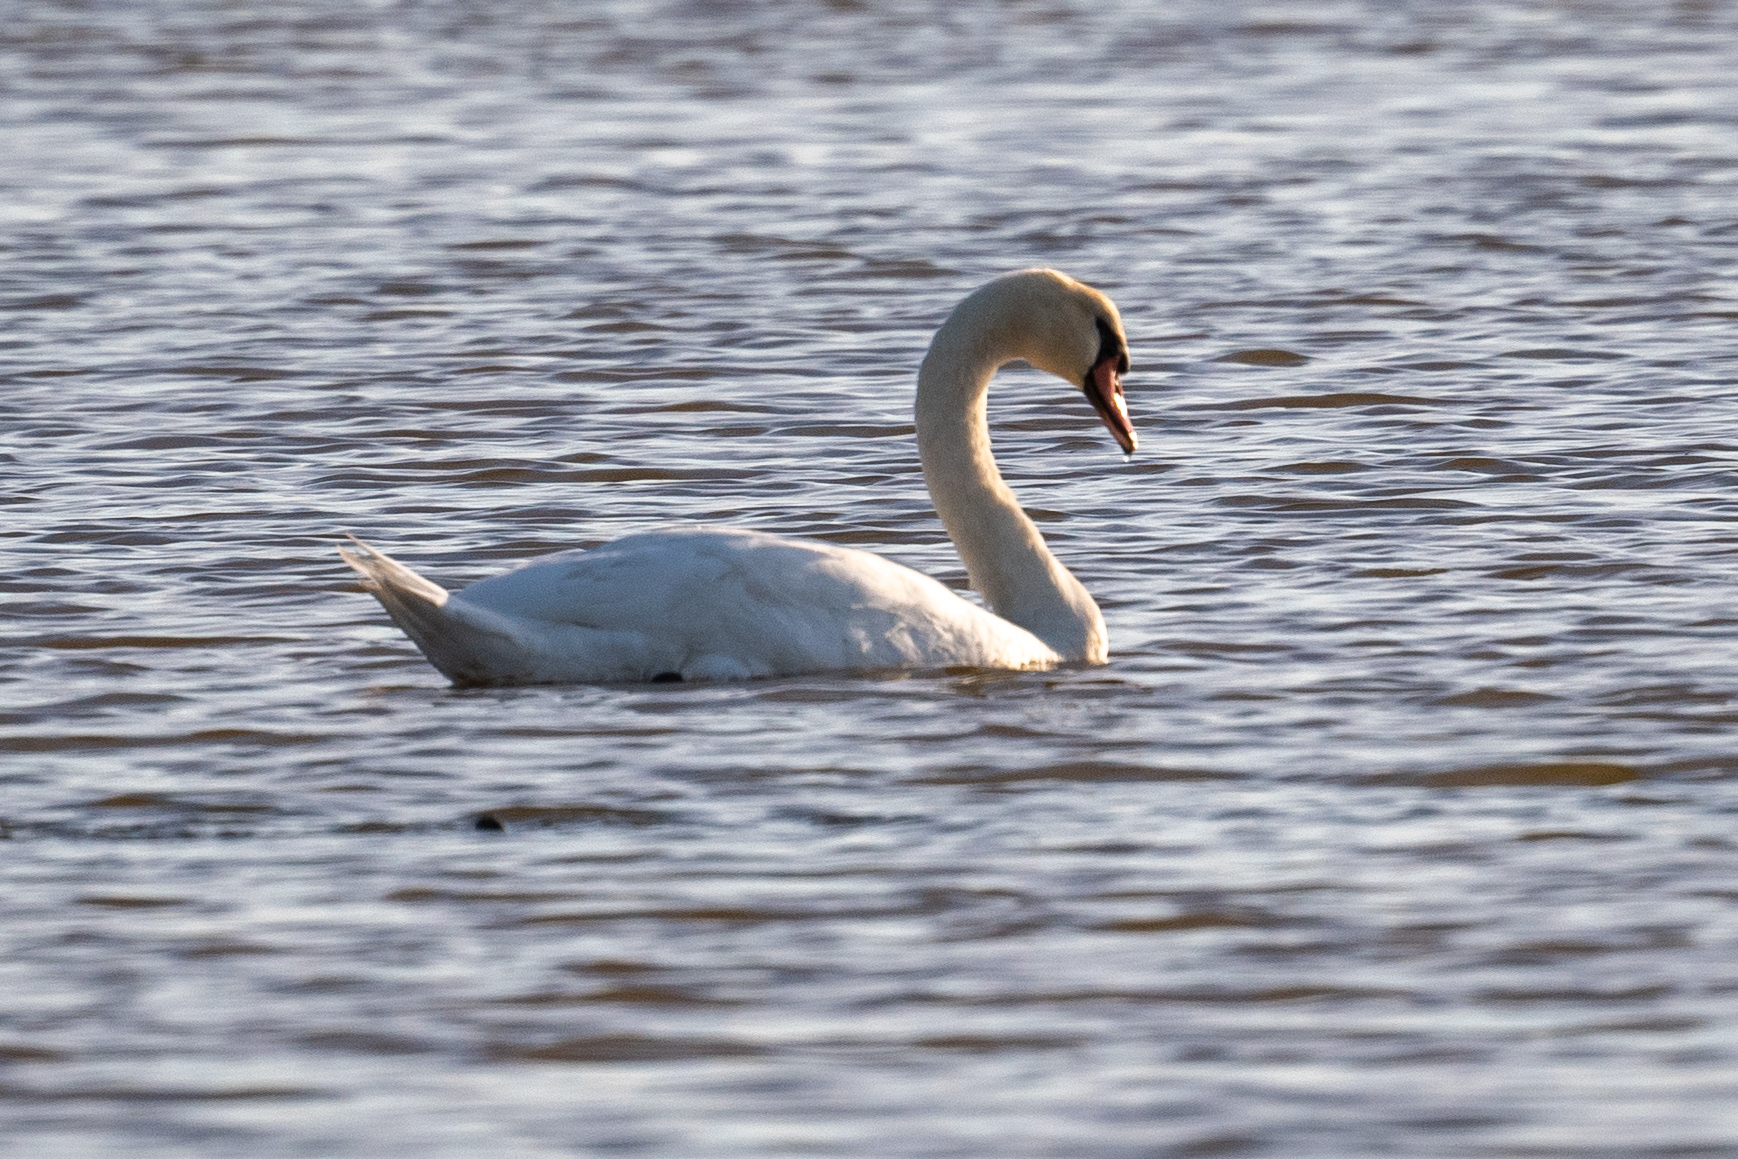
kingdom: Animalia
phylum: Chordata
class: Aves
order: Anseriformes
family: Anatidae
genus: Cygnus
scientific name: Cygnus olor
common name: Mute swan
